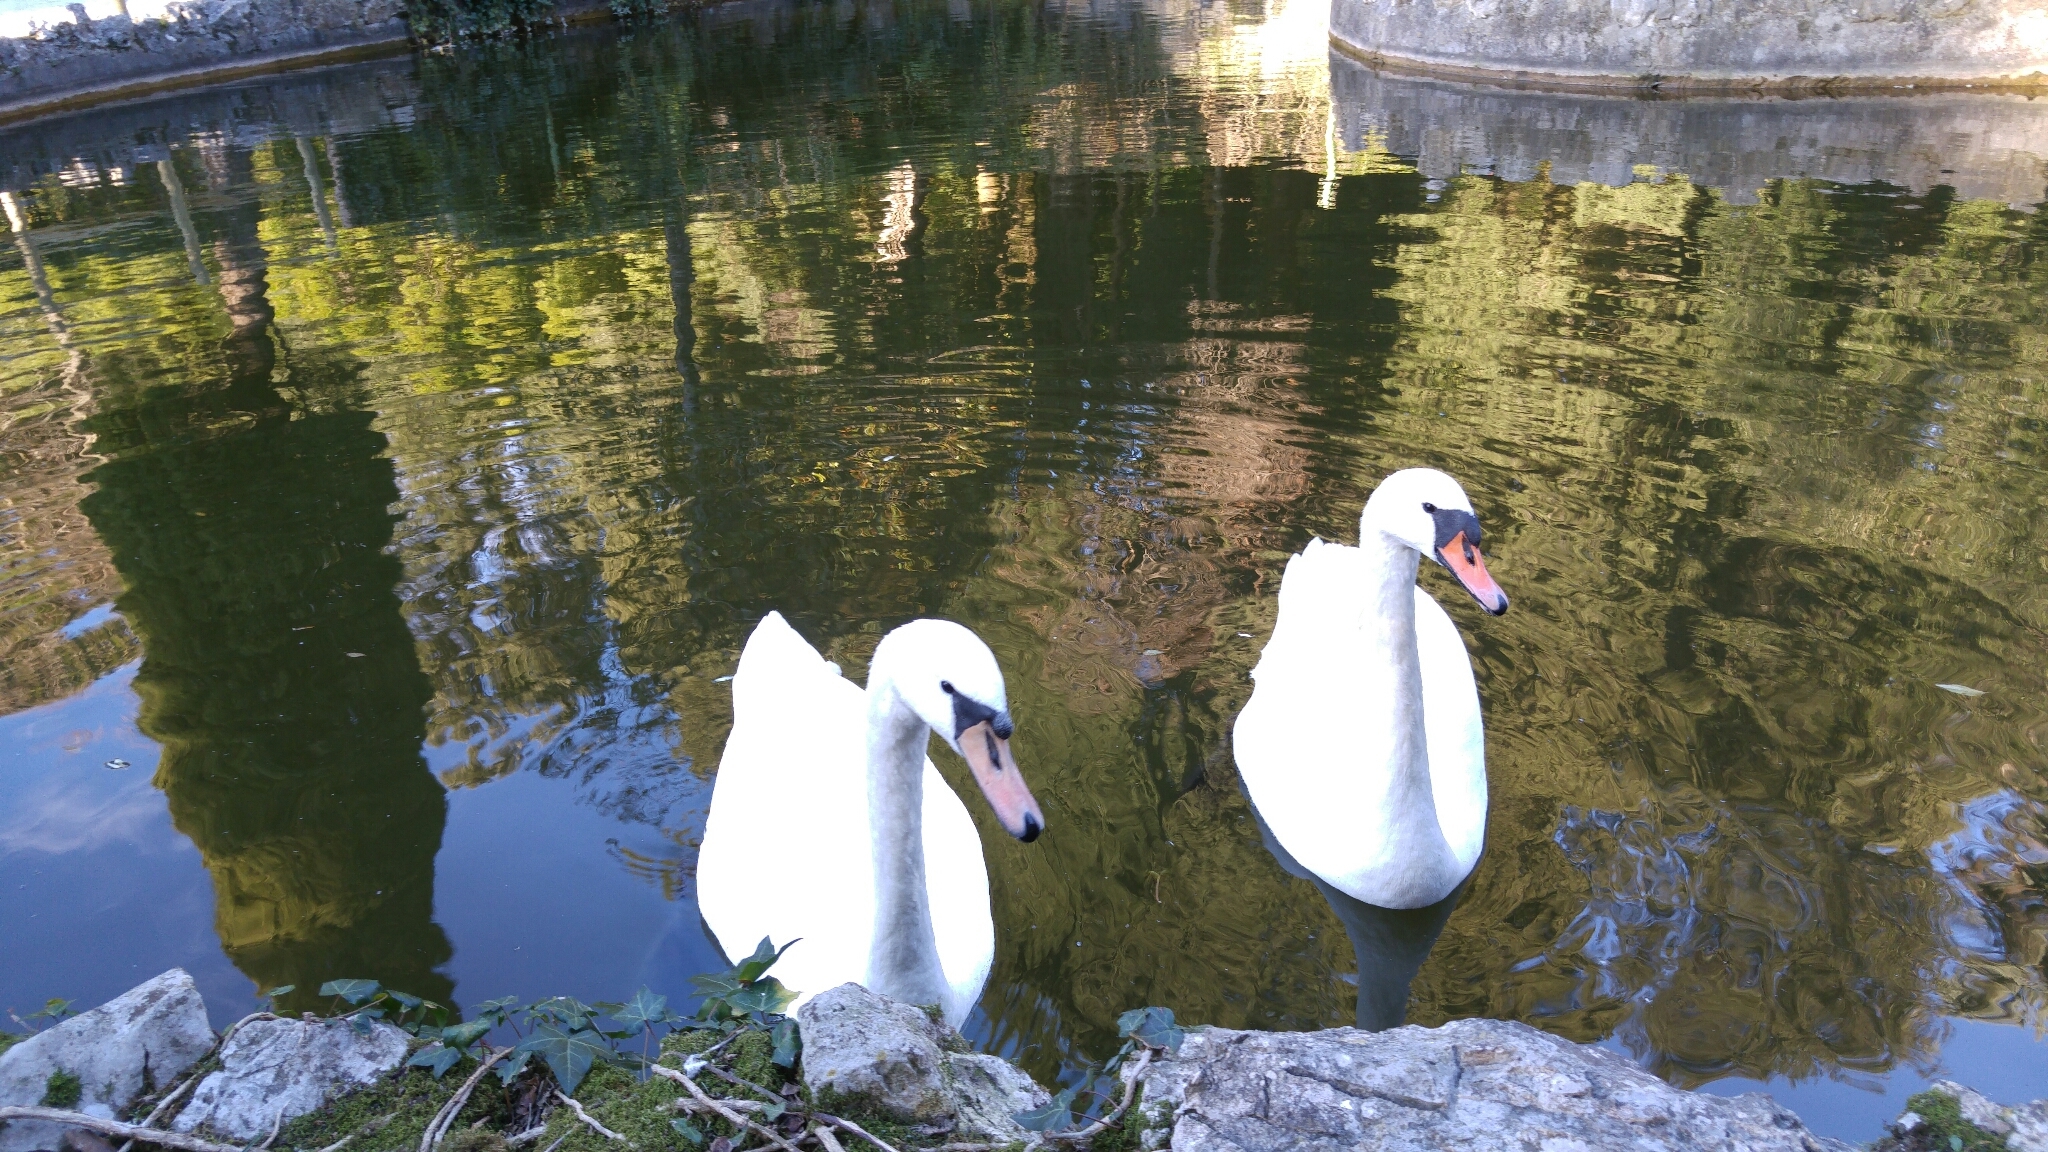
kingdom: Animalia
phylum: Chordata
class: Aves
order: Anseriformes
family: Anatidae
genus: Cygnus
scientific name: Cygnus olor
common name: Mute swan
